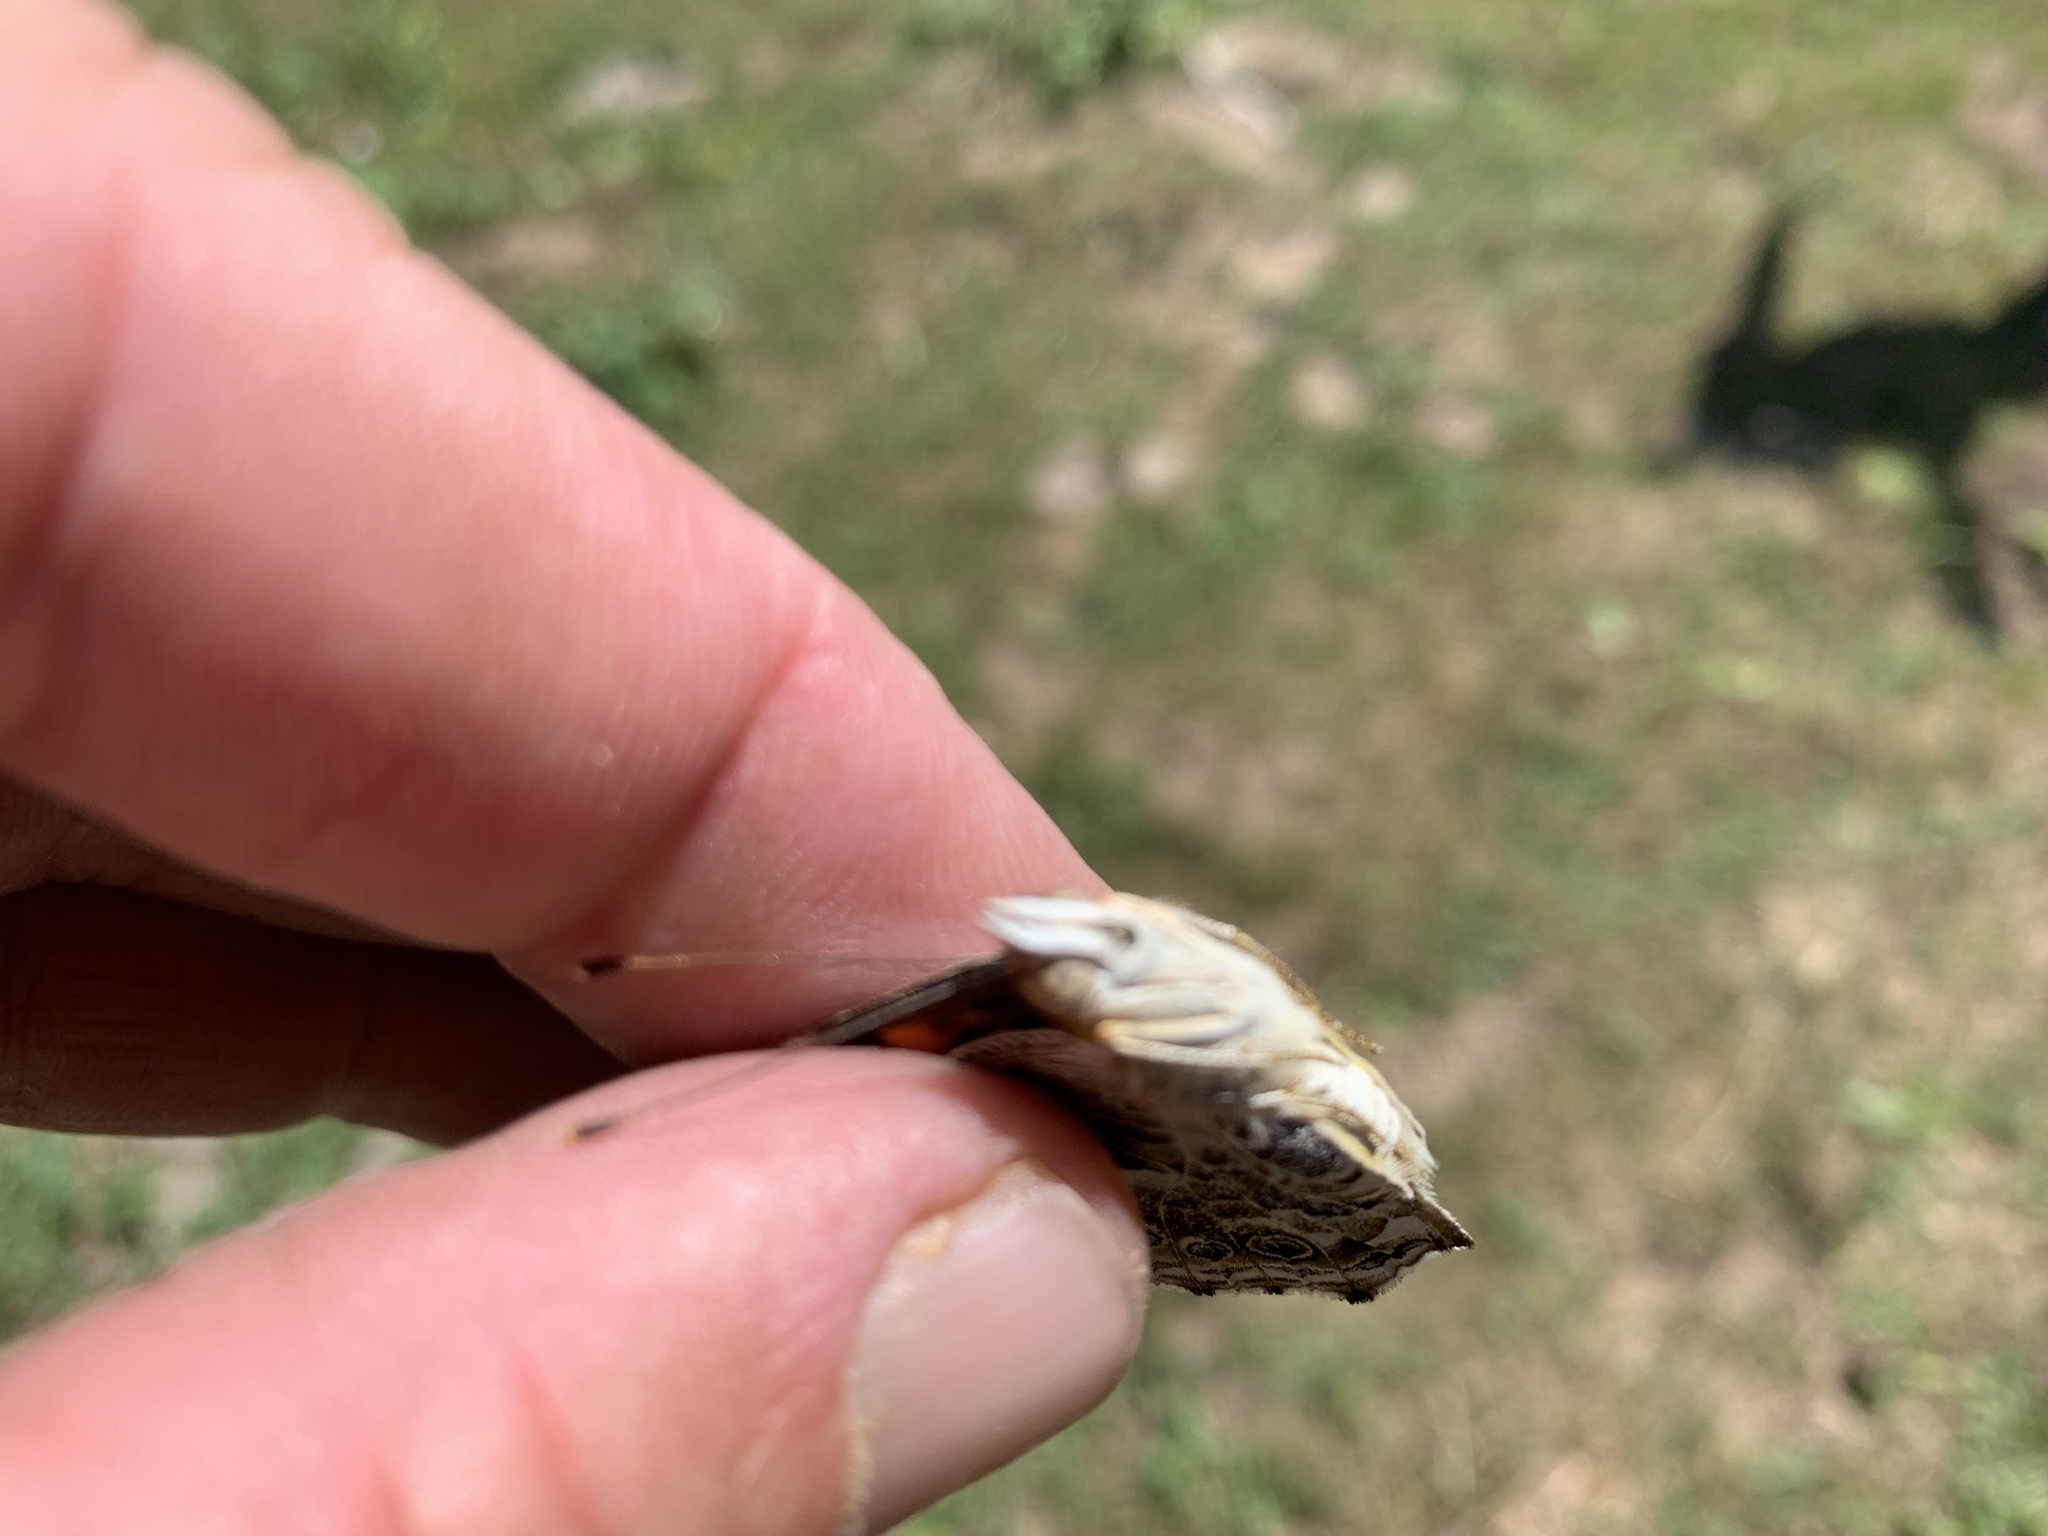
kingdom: Animalia
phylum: Arthropoda
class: Insecta
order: Lepidoptera
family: Nymphalidae
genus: Vanessa
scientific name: Vanessa cardui
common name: Painted lady
